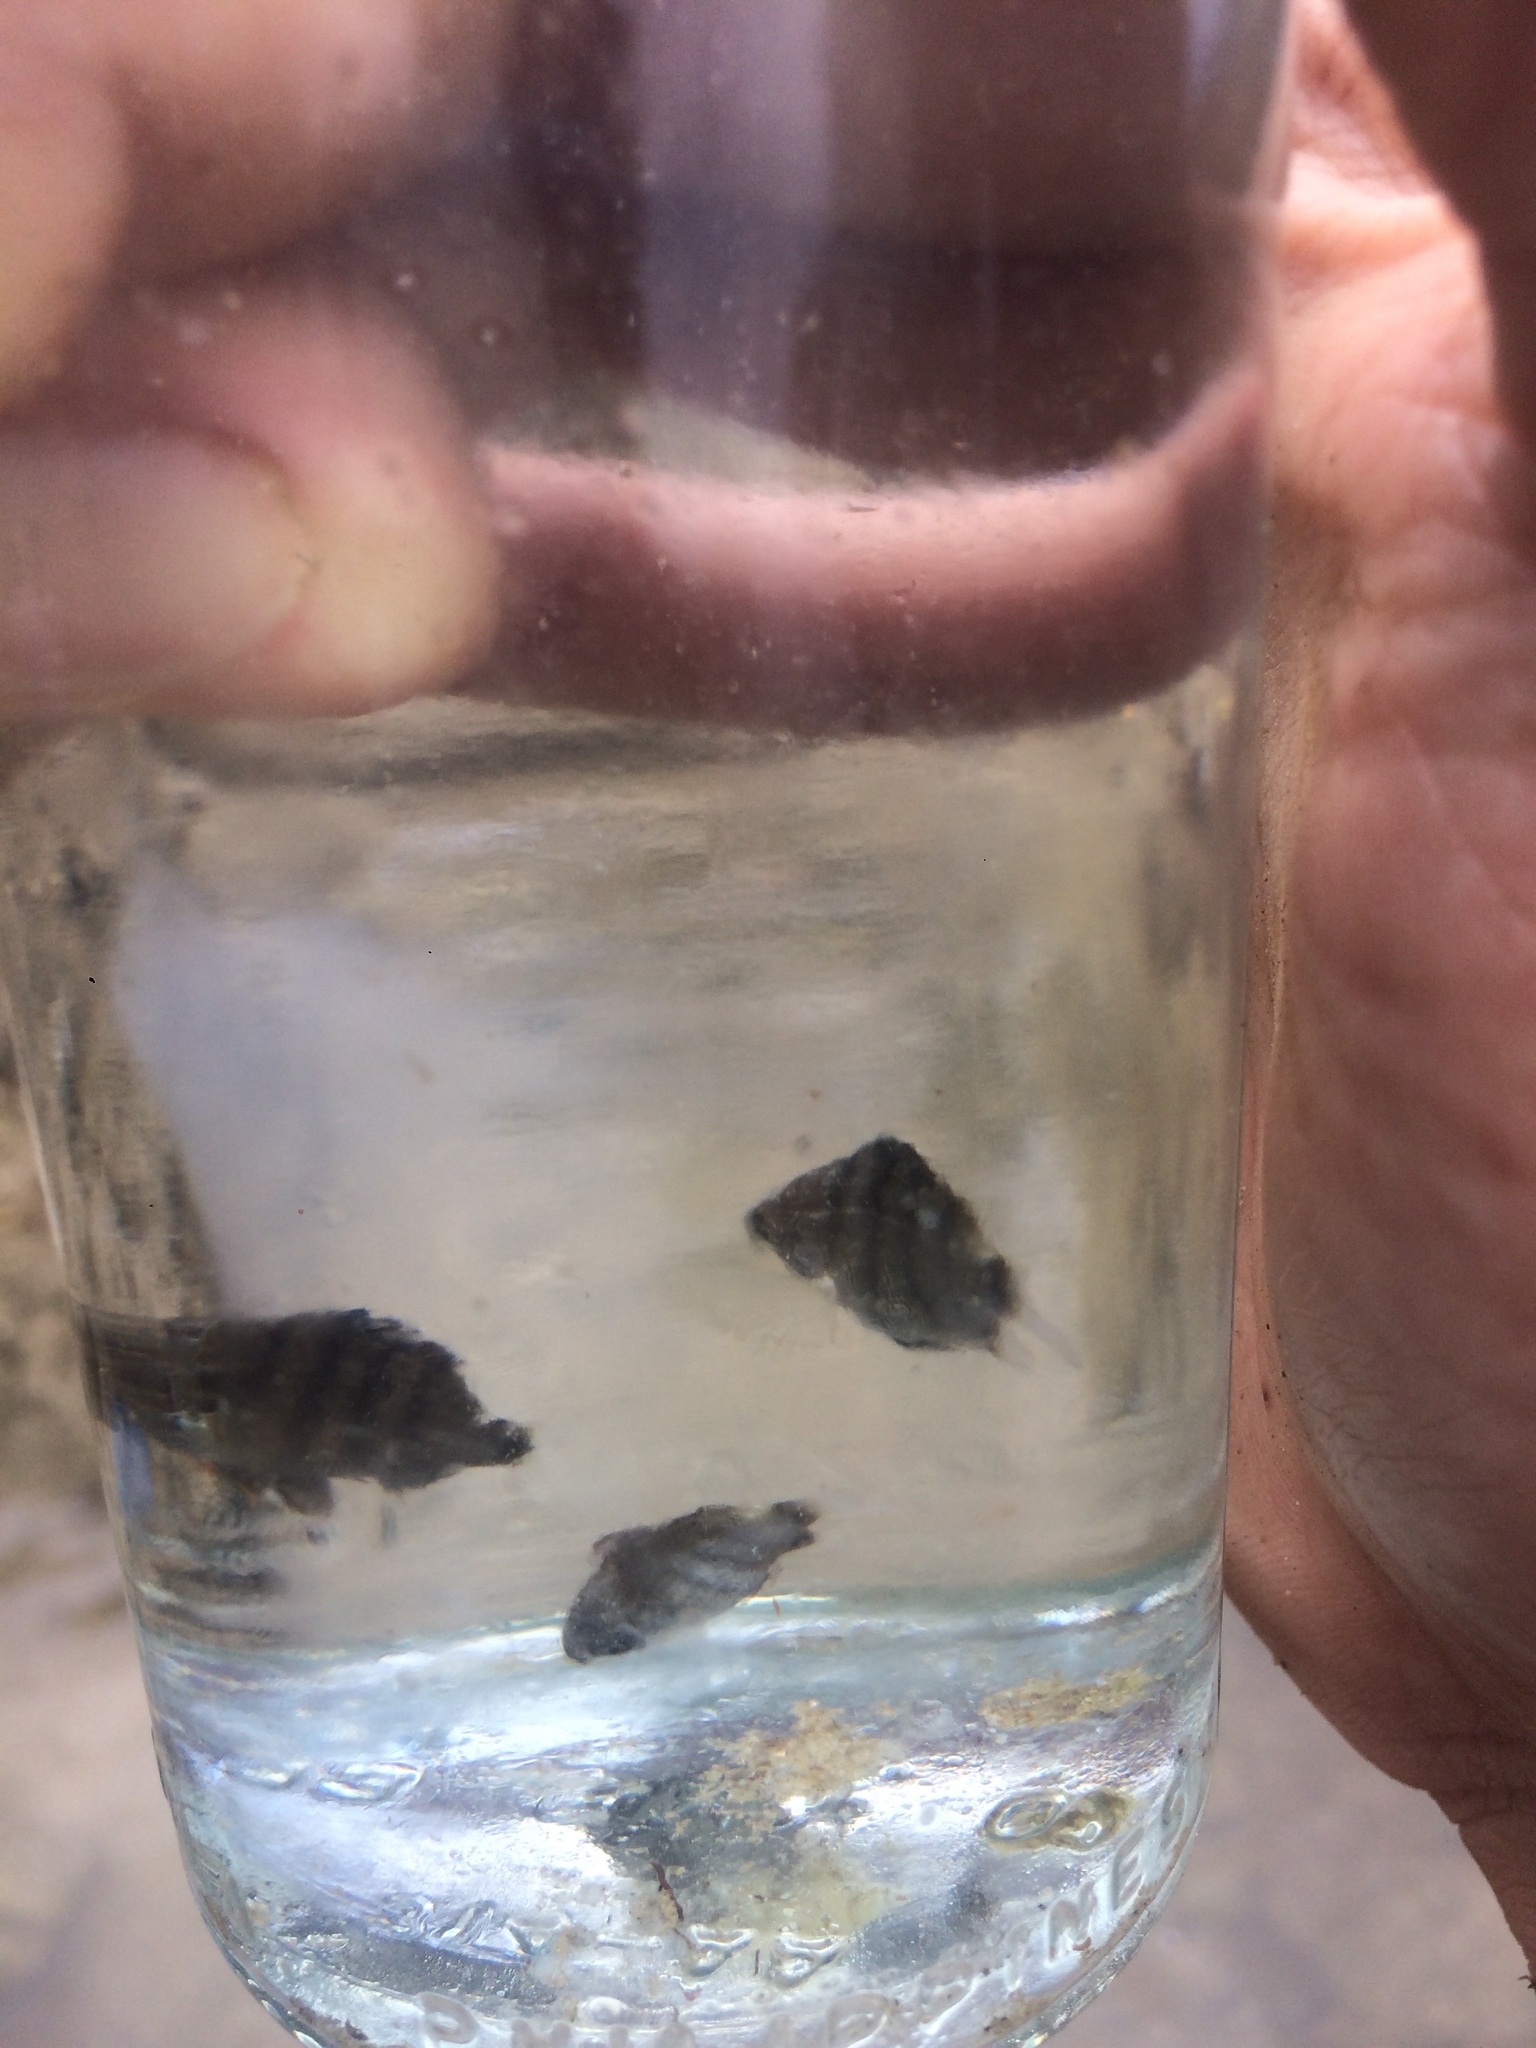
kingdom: Animalia
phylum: Chordata
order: Perciformes
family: Pomacentridae
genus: Abudefduf
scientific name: Abudefduf vaigiensis
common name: Indo-pacific sergeant
